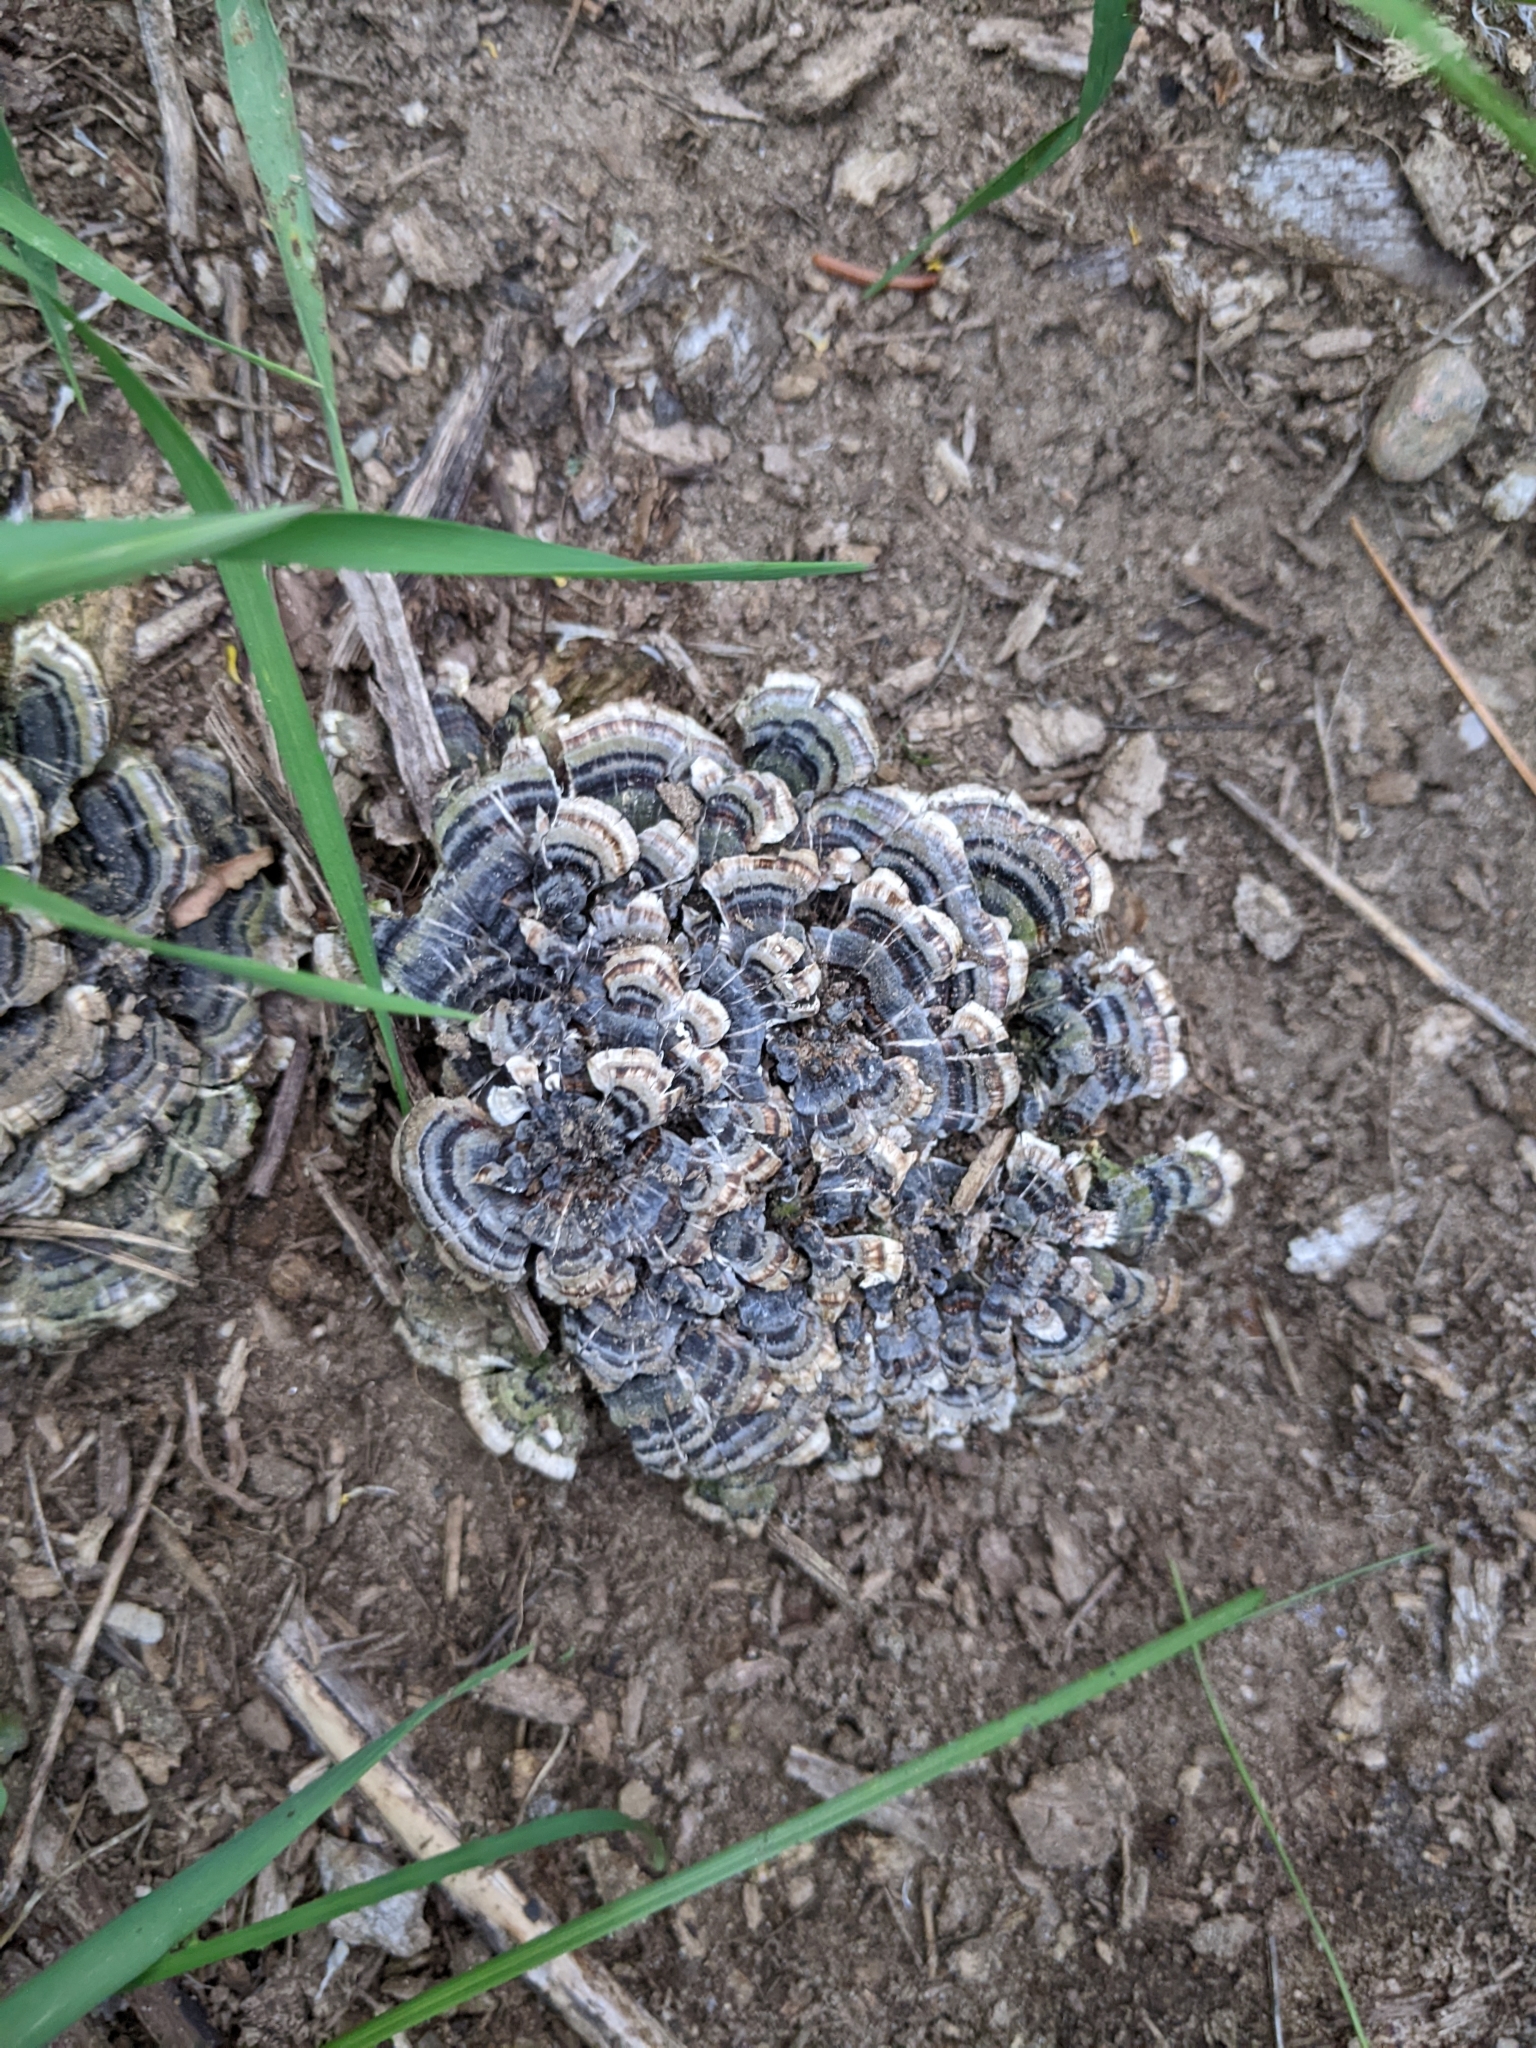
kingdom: Fungi
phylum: Basidiomycota
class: Agaricomycetes
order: Polyporales
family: Polyporaceae
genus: Trametes
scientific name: Trametes versicolor
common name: Turkeytail
